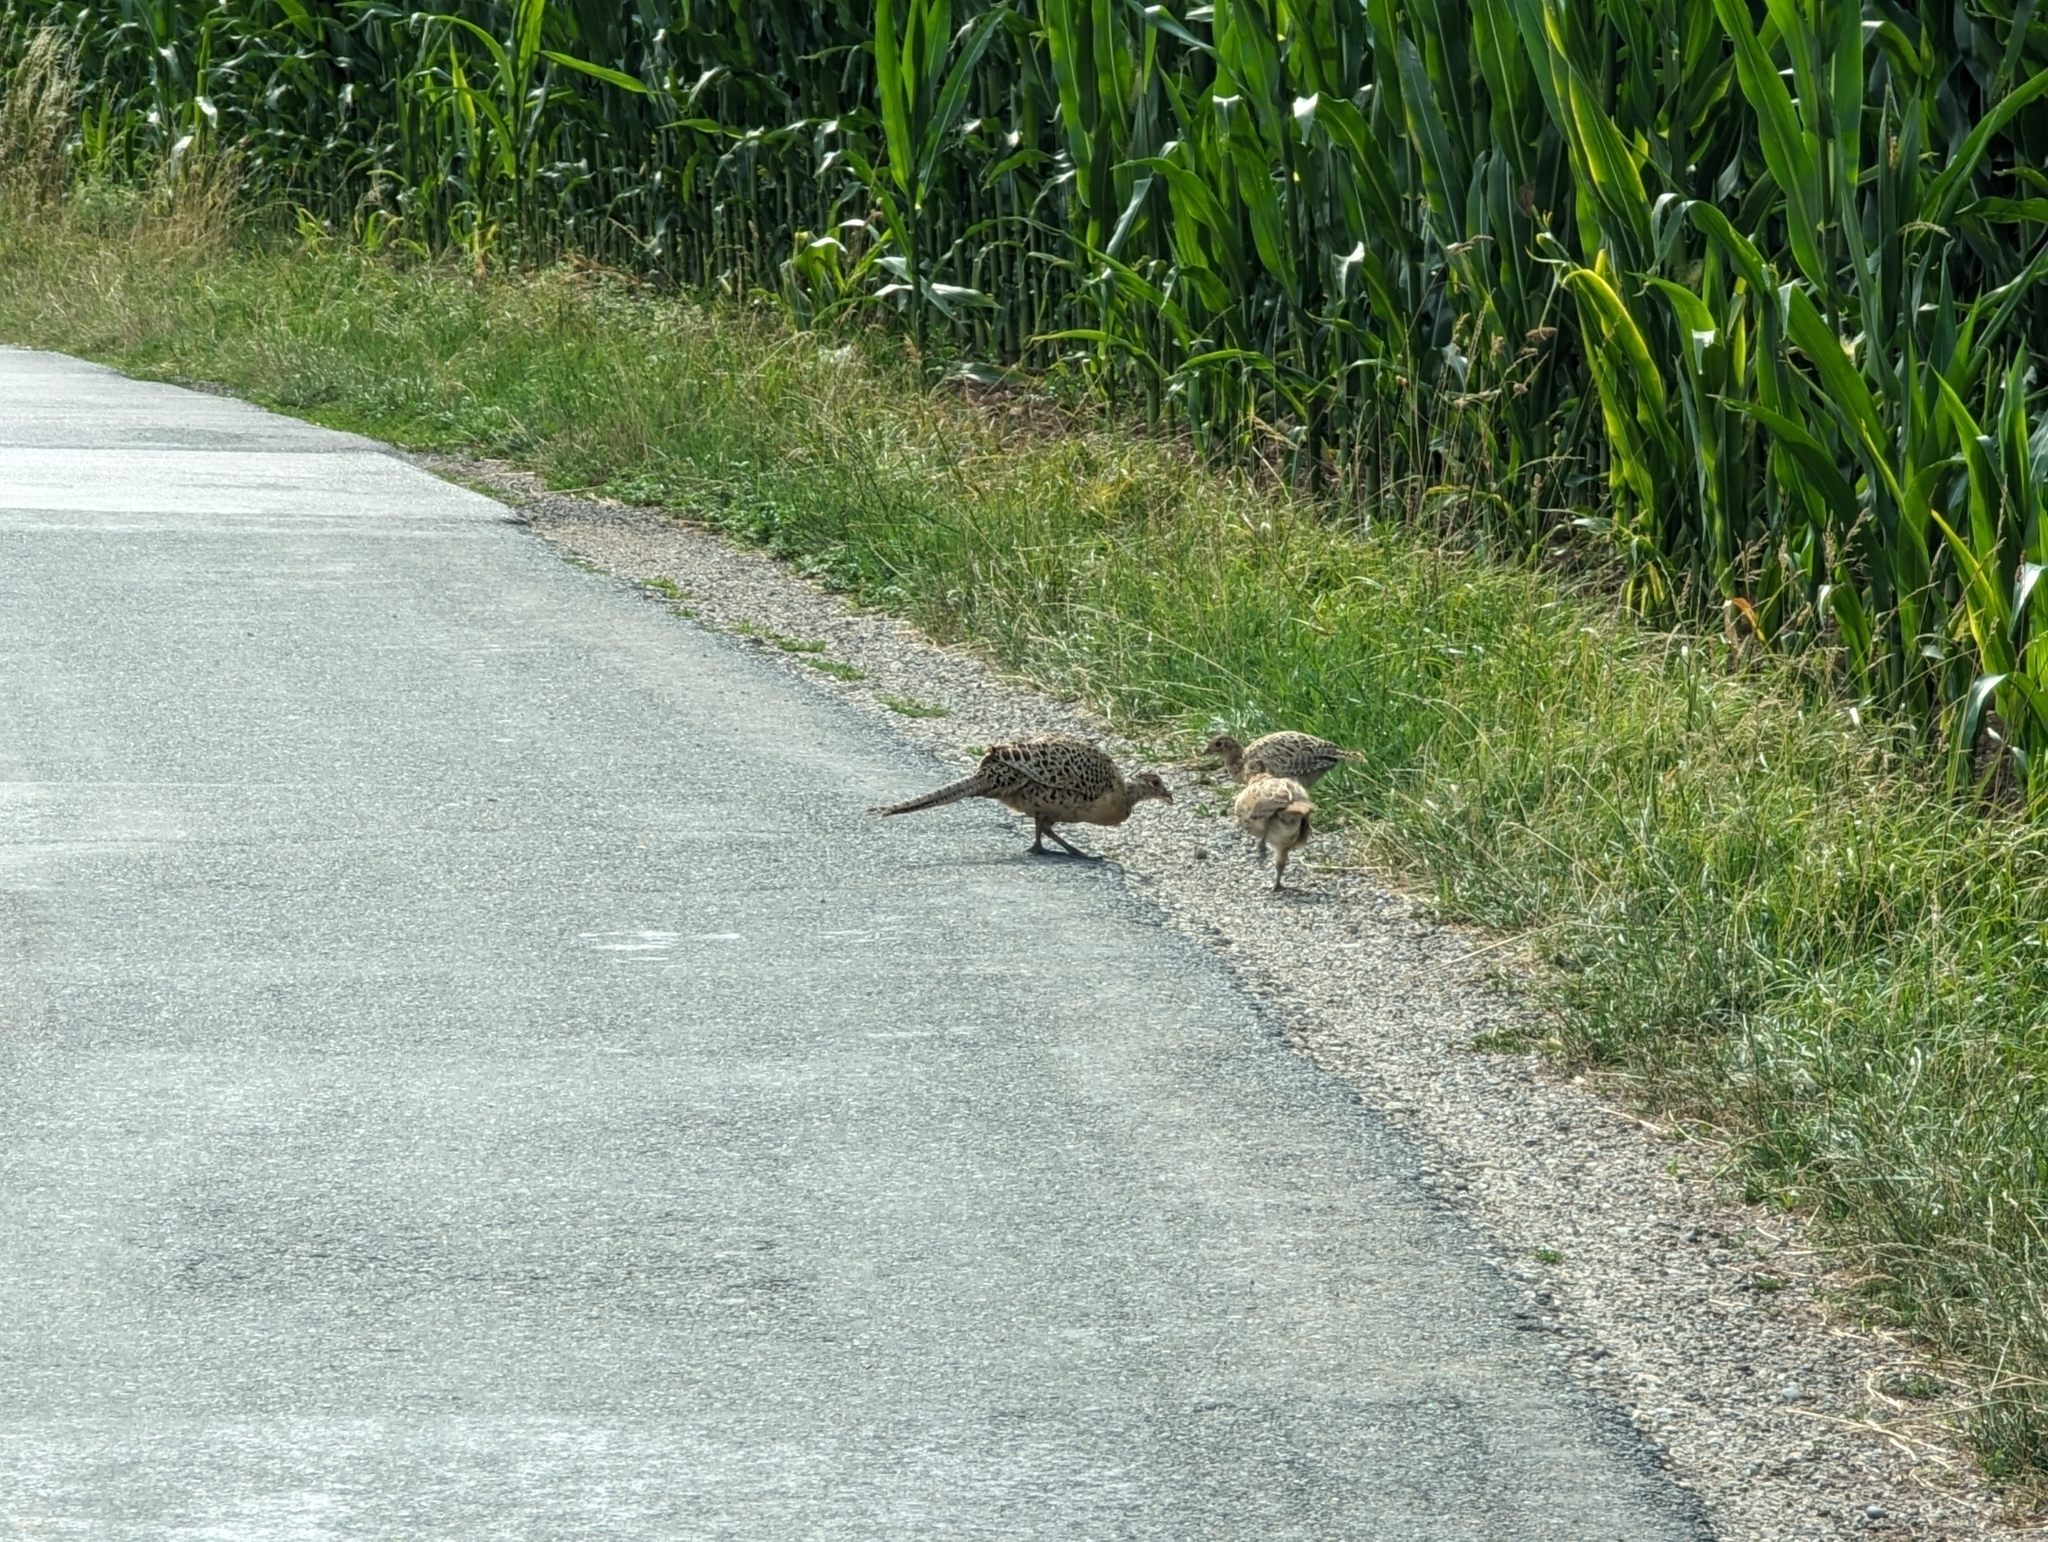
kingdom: Animalia
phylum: Chordata
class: Aves
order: Galliformes
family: Phasianidae
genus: Phasianus
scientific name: Phasianus colchicus
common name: Common pheasant
